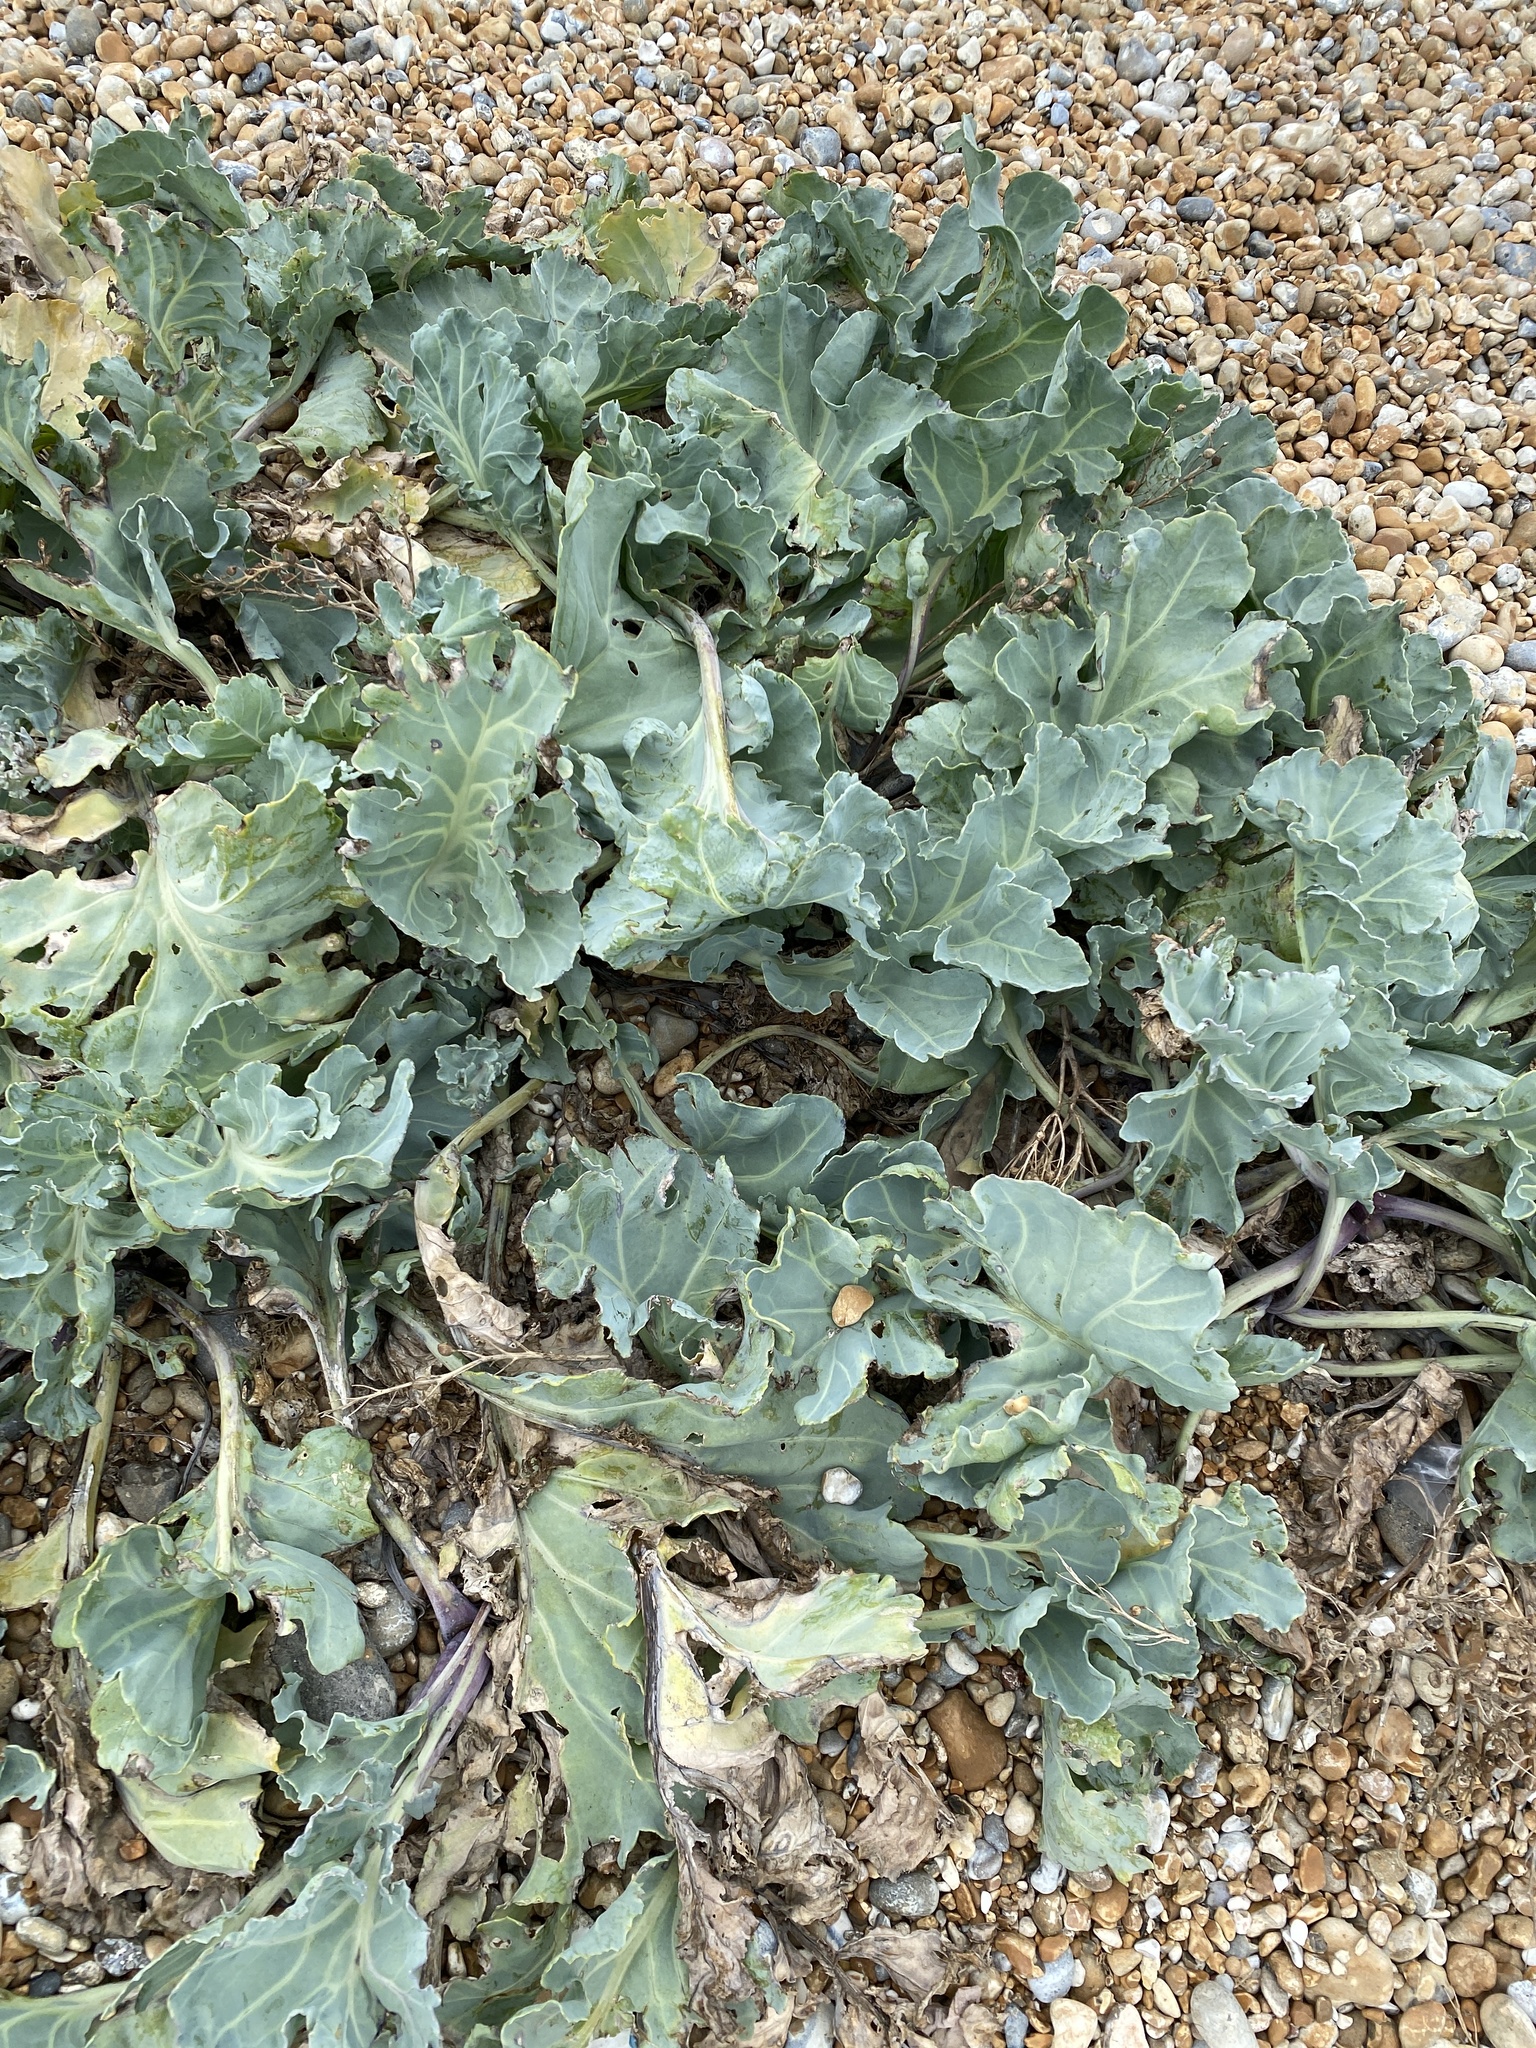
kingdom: Plantae
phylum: Tracheophyta
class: Magnoliopsida
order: Brassicales
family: Brassicaceae
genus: Crambe
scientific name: Crambe maritima
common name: Sea-kale
